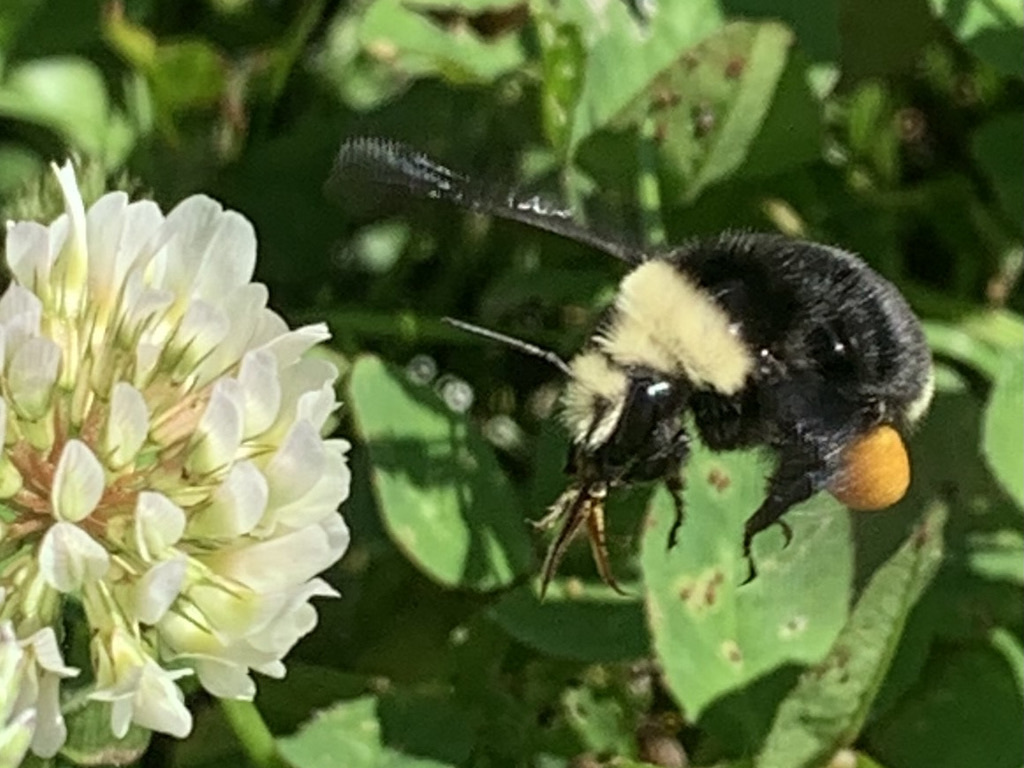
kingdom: Animalia
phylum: Arthropoda
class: Insecta
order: Hymenoptera
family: Apidae
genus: Bombus
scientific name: Bombus vosnesenskii
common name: Vosnesensky bumble bee
